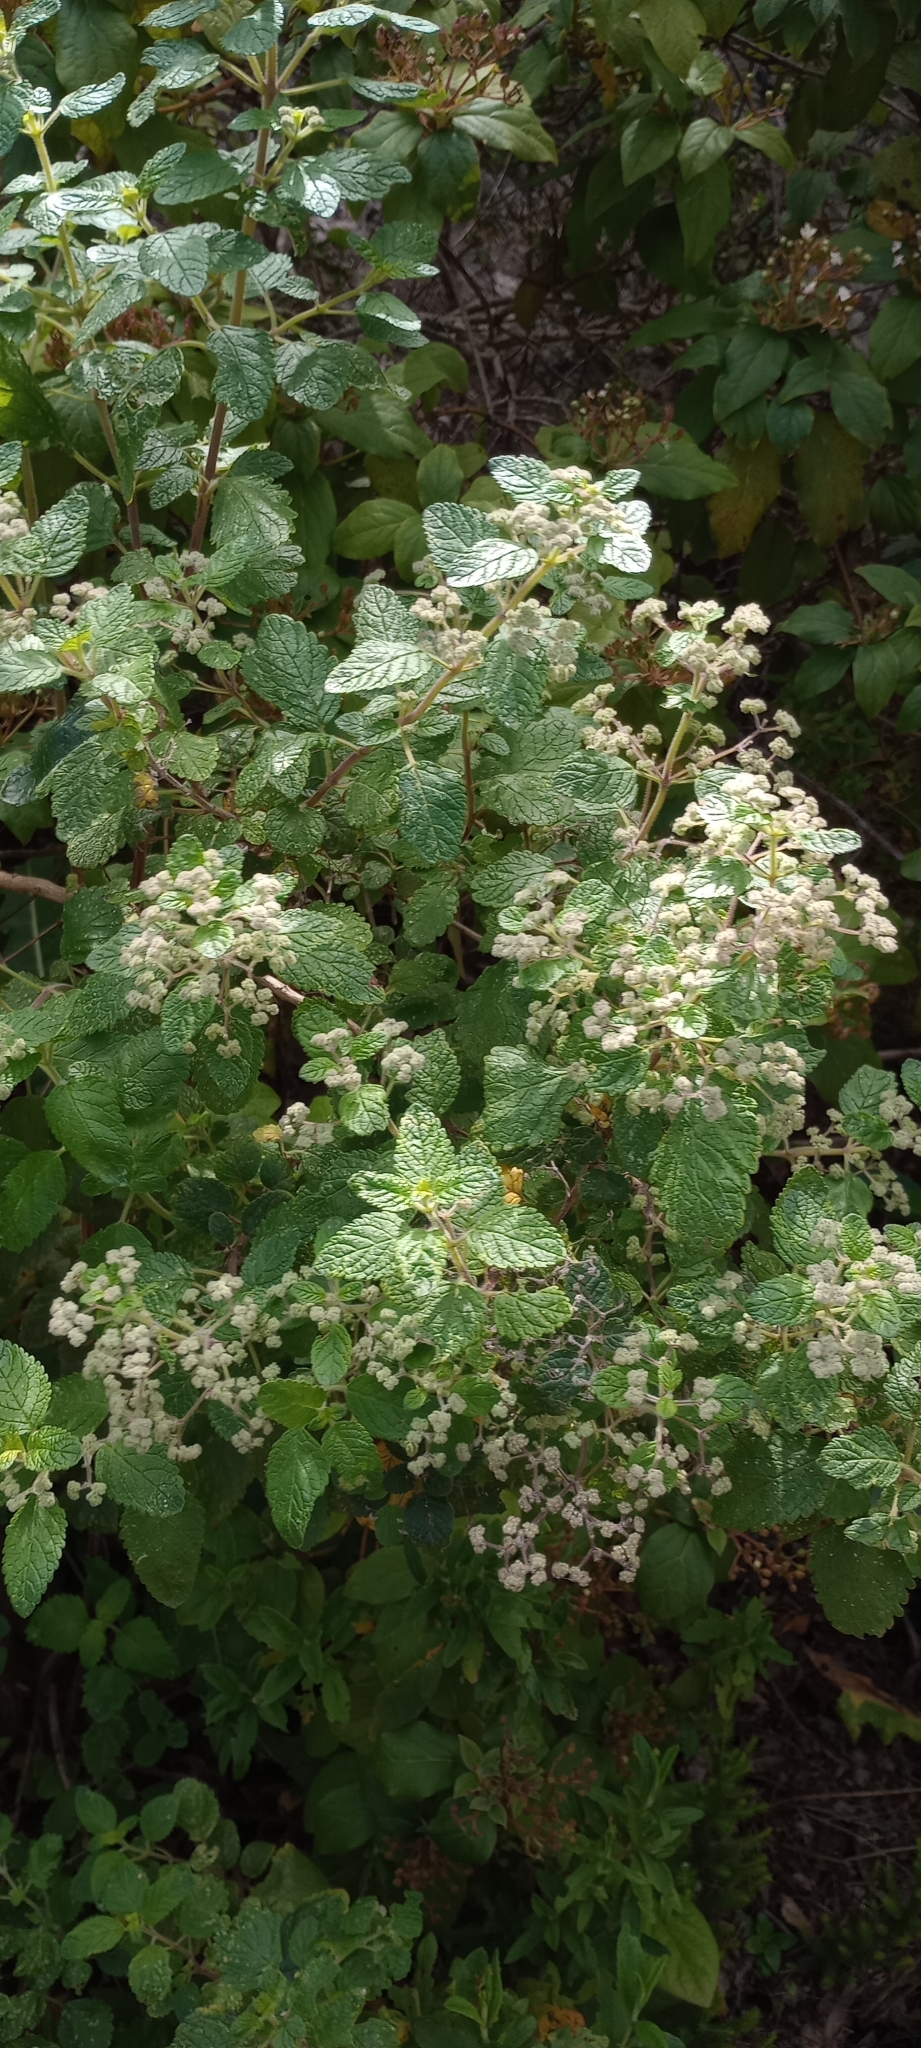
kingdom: Plantae
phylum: Tracheophyta
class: Magnoliopsida
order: Lamiales
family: Lamiaceae
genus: Bystropogon
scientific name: Bystropogon canariensis
